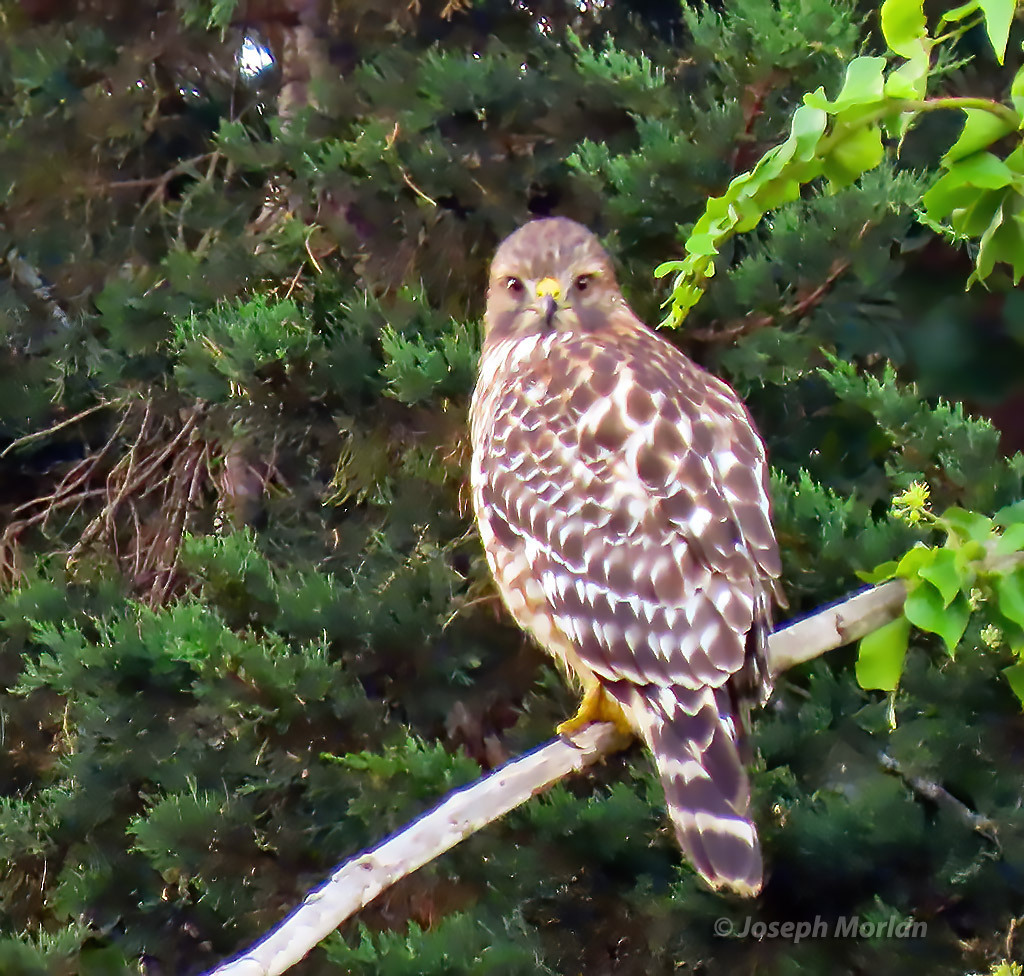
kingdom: Animalia
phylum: Chordata
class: Aves
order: Accipitriformes
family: Accipitridae
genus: Buteo
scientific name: Buteo lineatus
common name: Red-shouldered hawk
